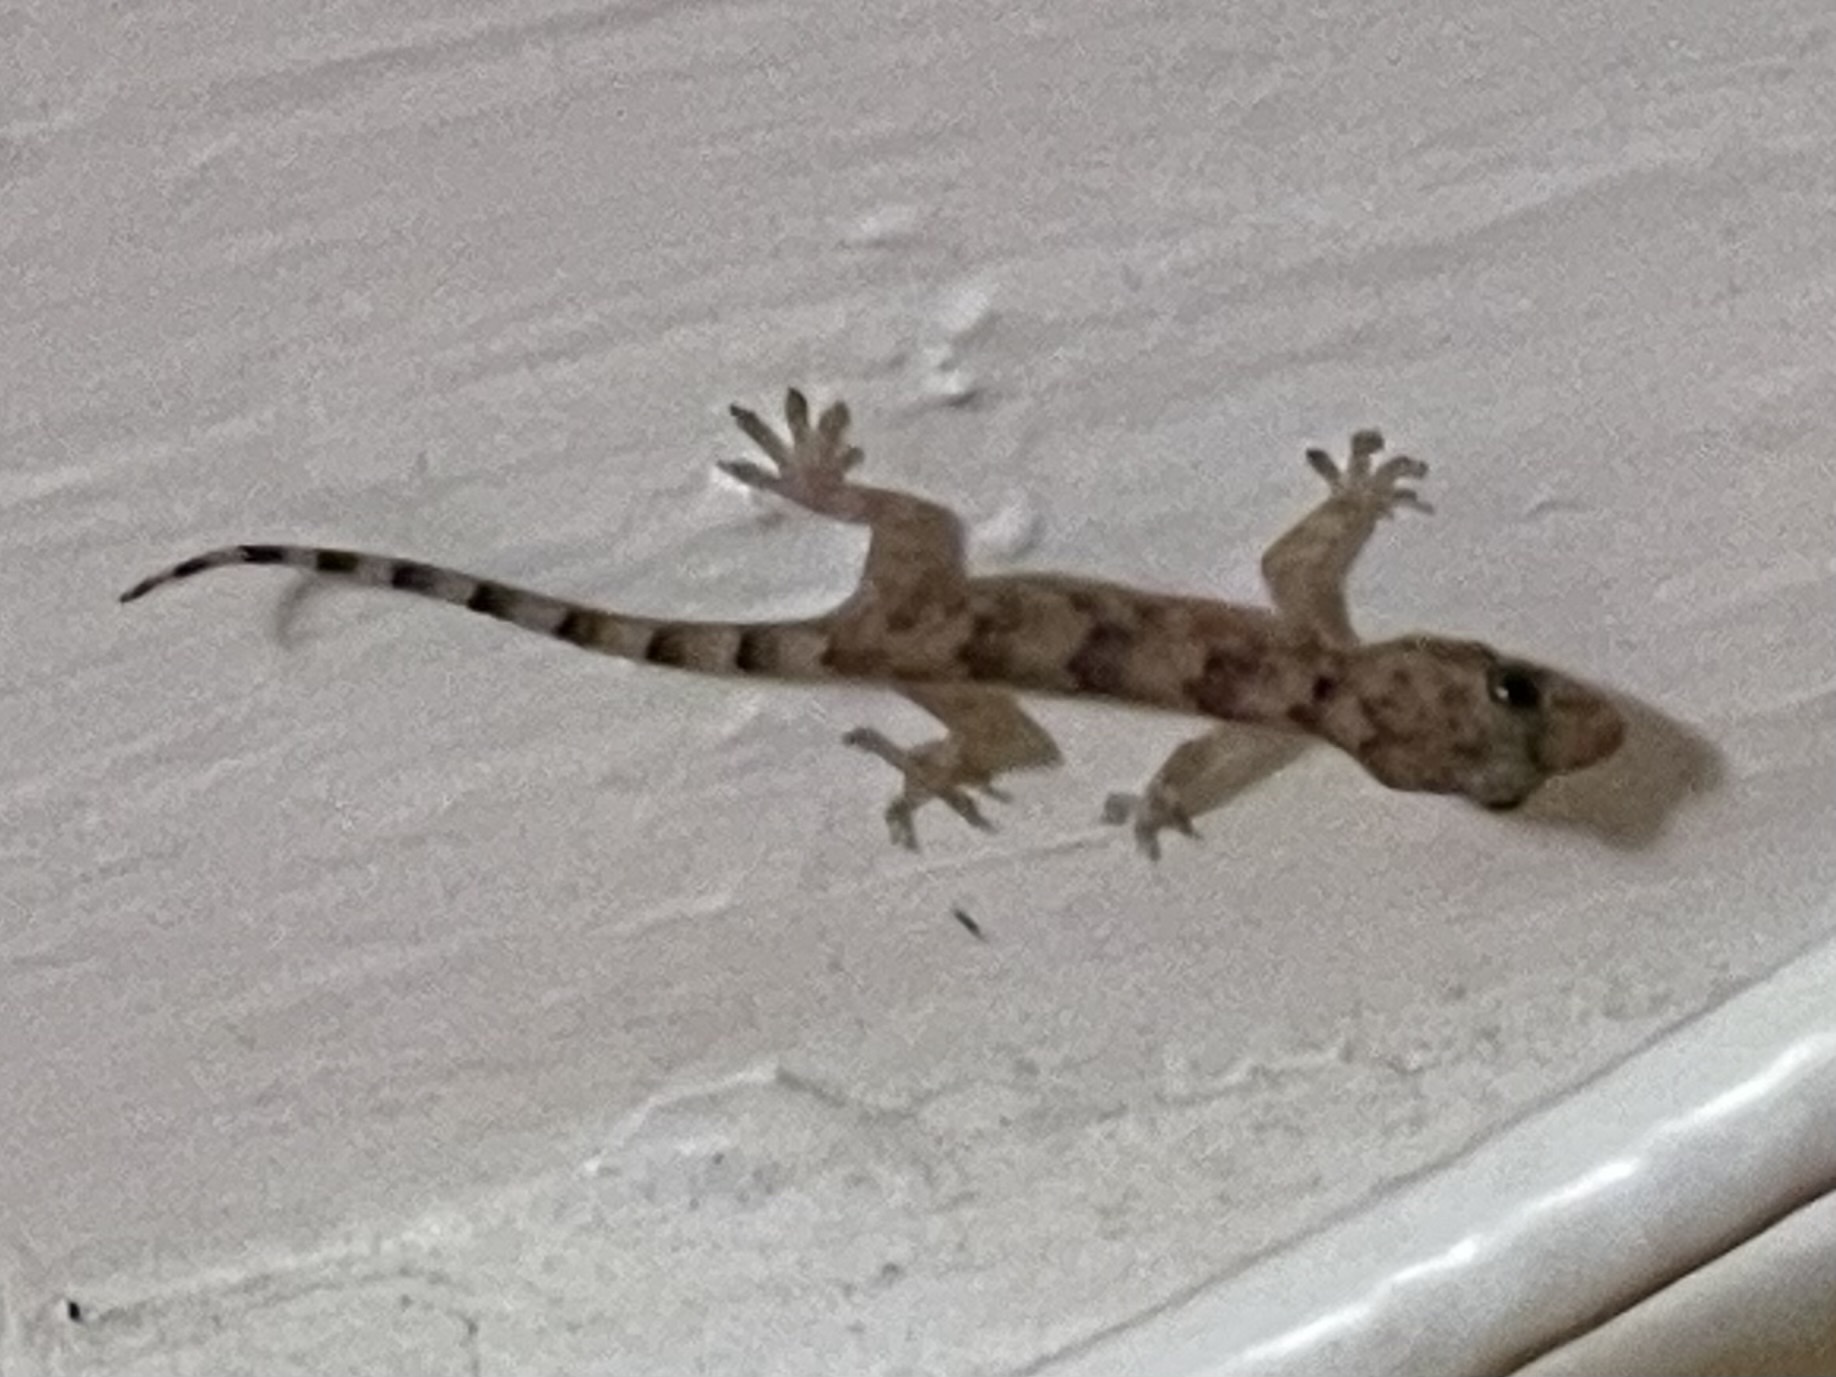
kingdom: Animalia
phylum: Chordata
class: Squamata
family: Gekkonidae
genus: Hemidactylus
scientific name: Hemidactylus mabouia
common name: House gecko
